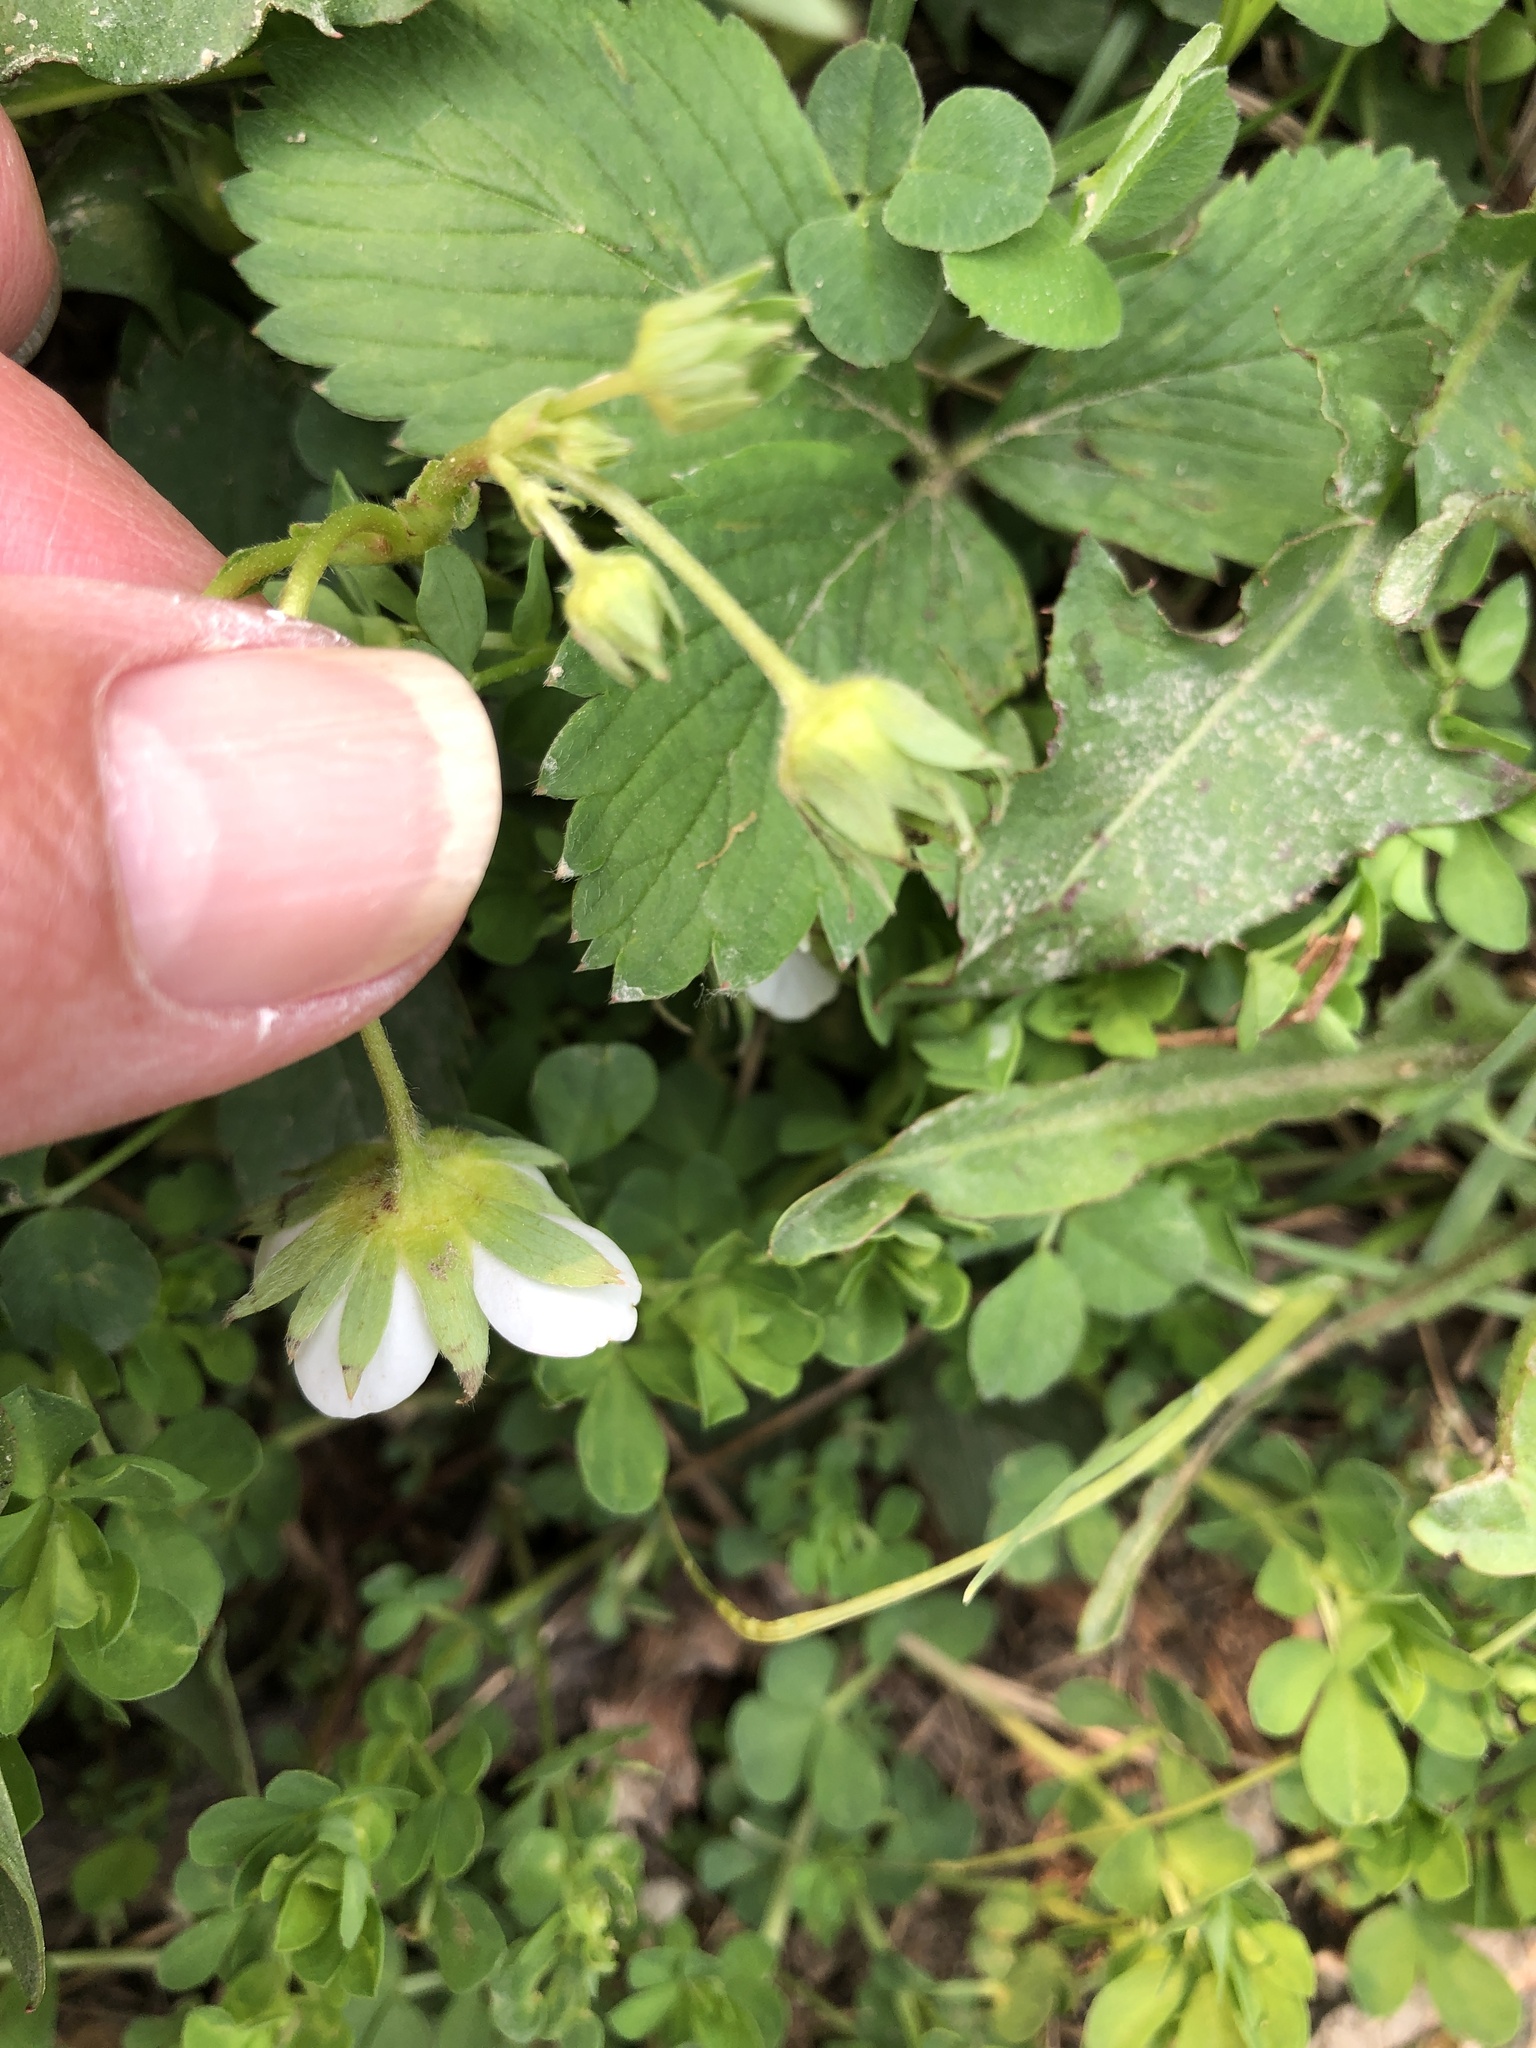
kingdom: Plantae
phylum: Tracheophyta
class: Magnoliopsida
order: Rosales
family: Rosaceae
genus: Fragaria
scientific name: Fragaria virginiana
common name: Thickleaved wild strawberry
